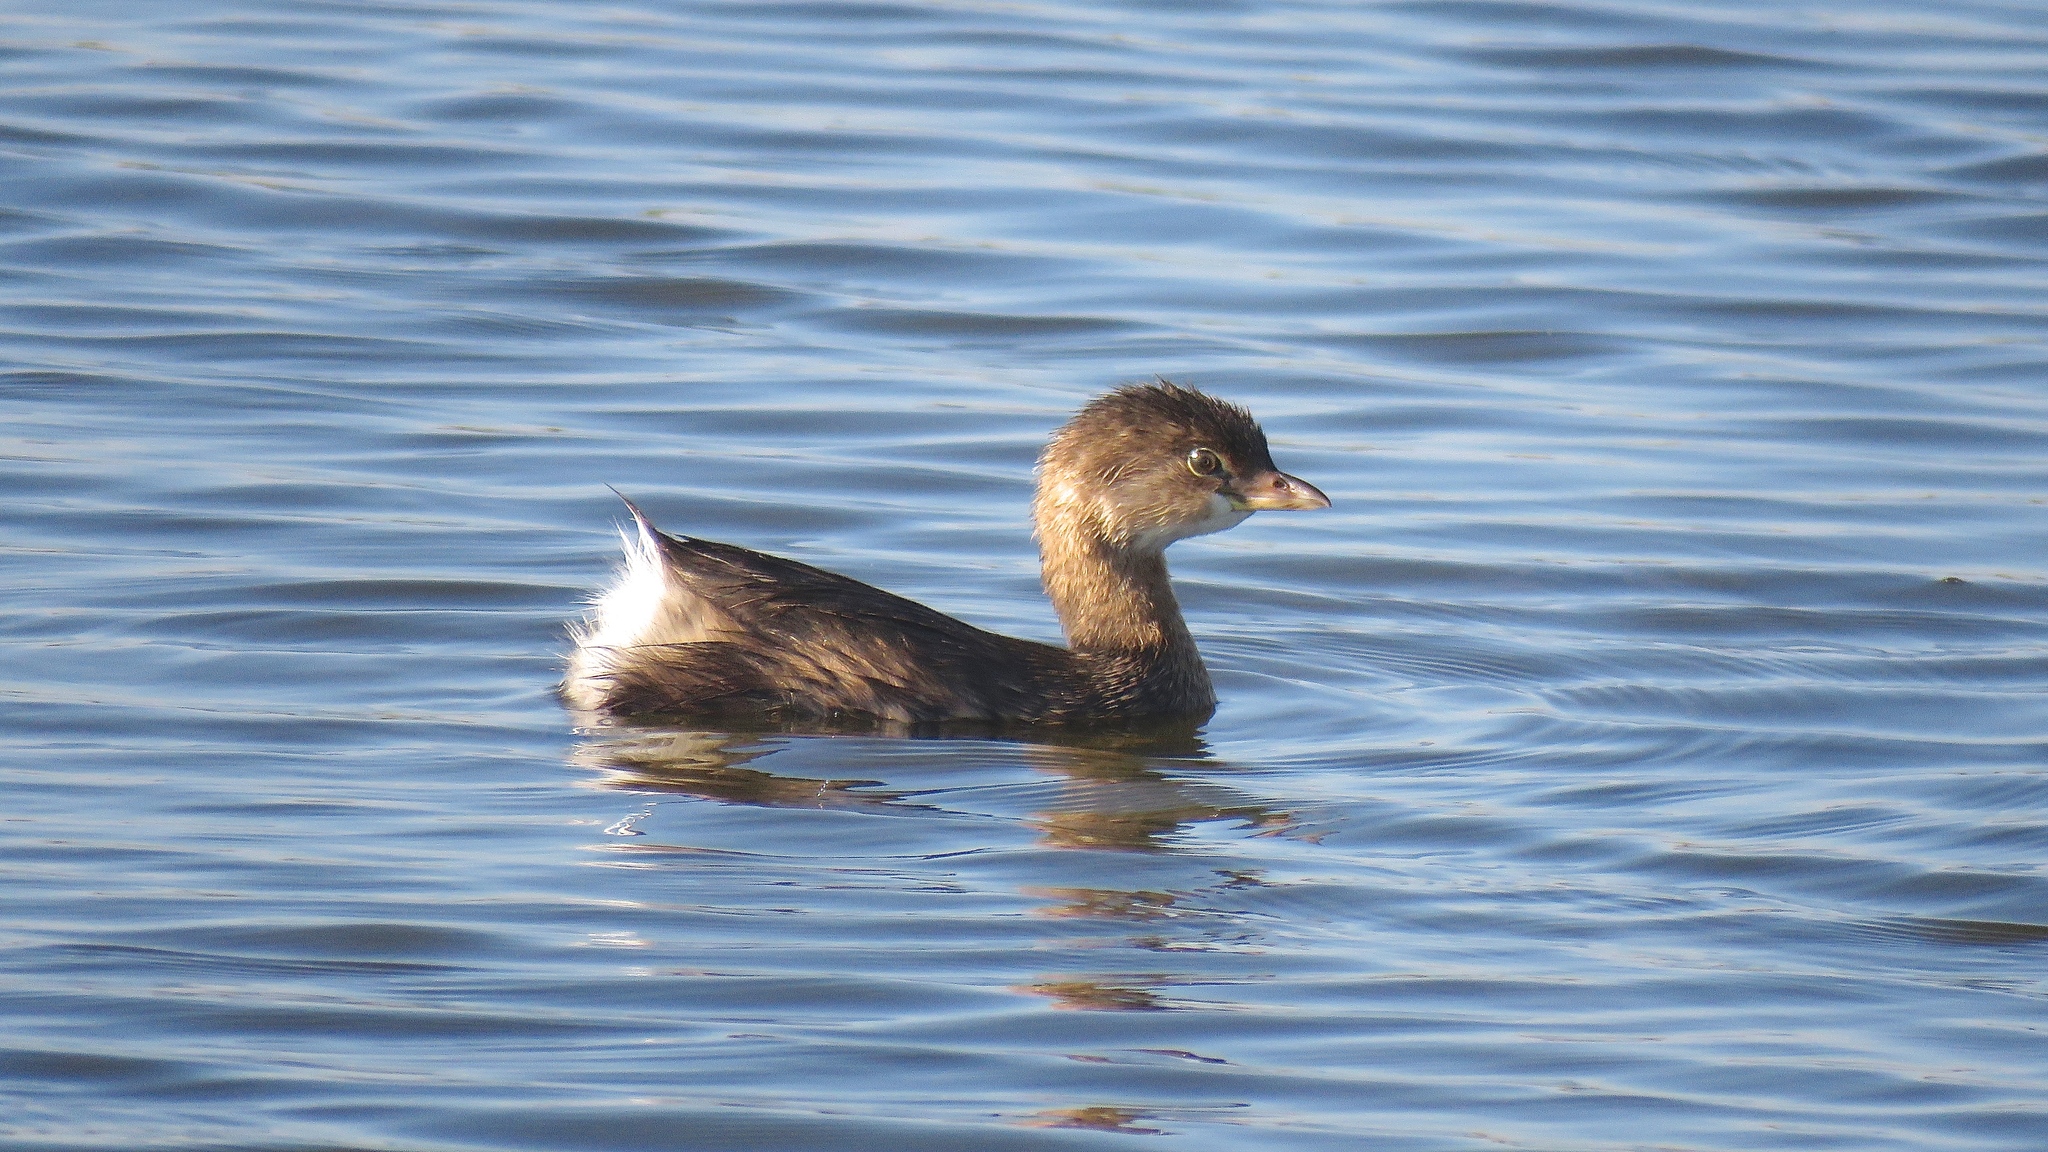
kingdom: Animalia
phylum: Chordata
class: Aves
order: Podicipediformes
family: Podicipedidae
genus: Podilymbus
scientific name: Podilymbus podiceps
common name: Pied-billed grebe
